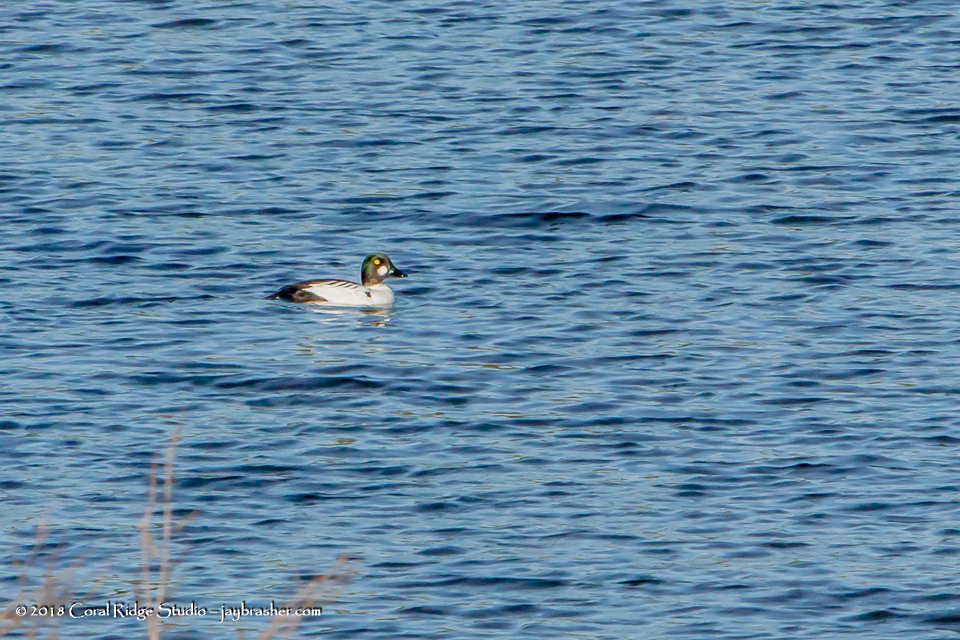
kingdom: Animalia
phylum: Chordata
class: Aves
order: Anseriformes
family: Anatidae
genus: Bucephala
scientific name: Bucephala clangula
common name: Common goldeneye
